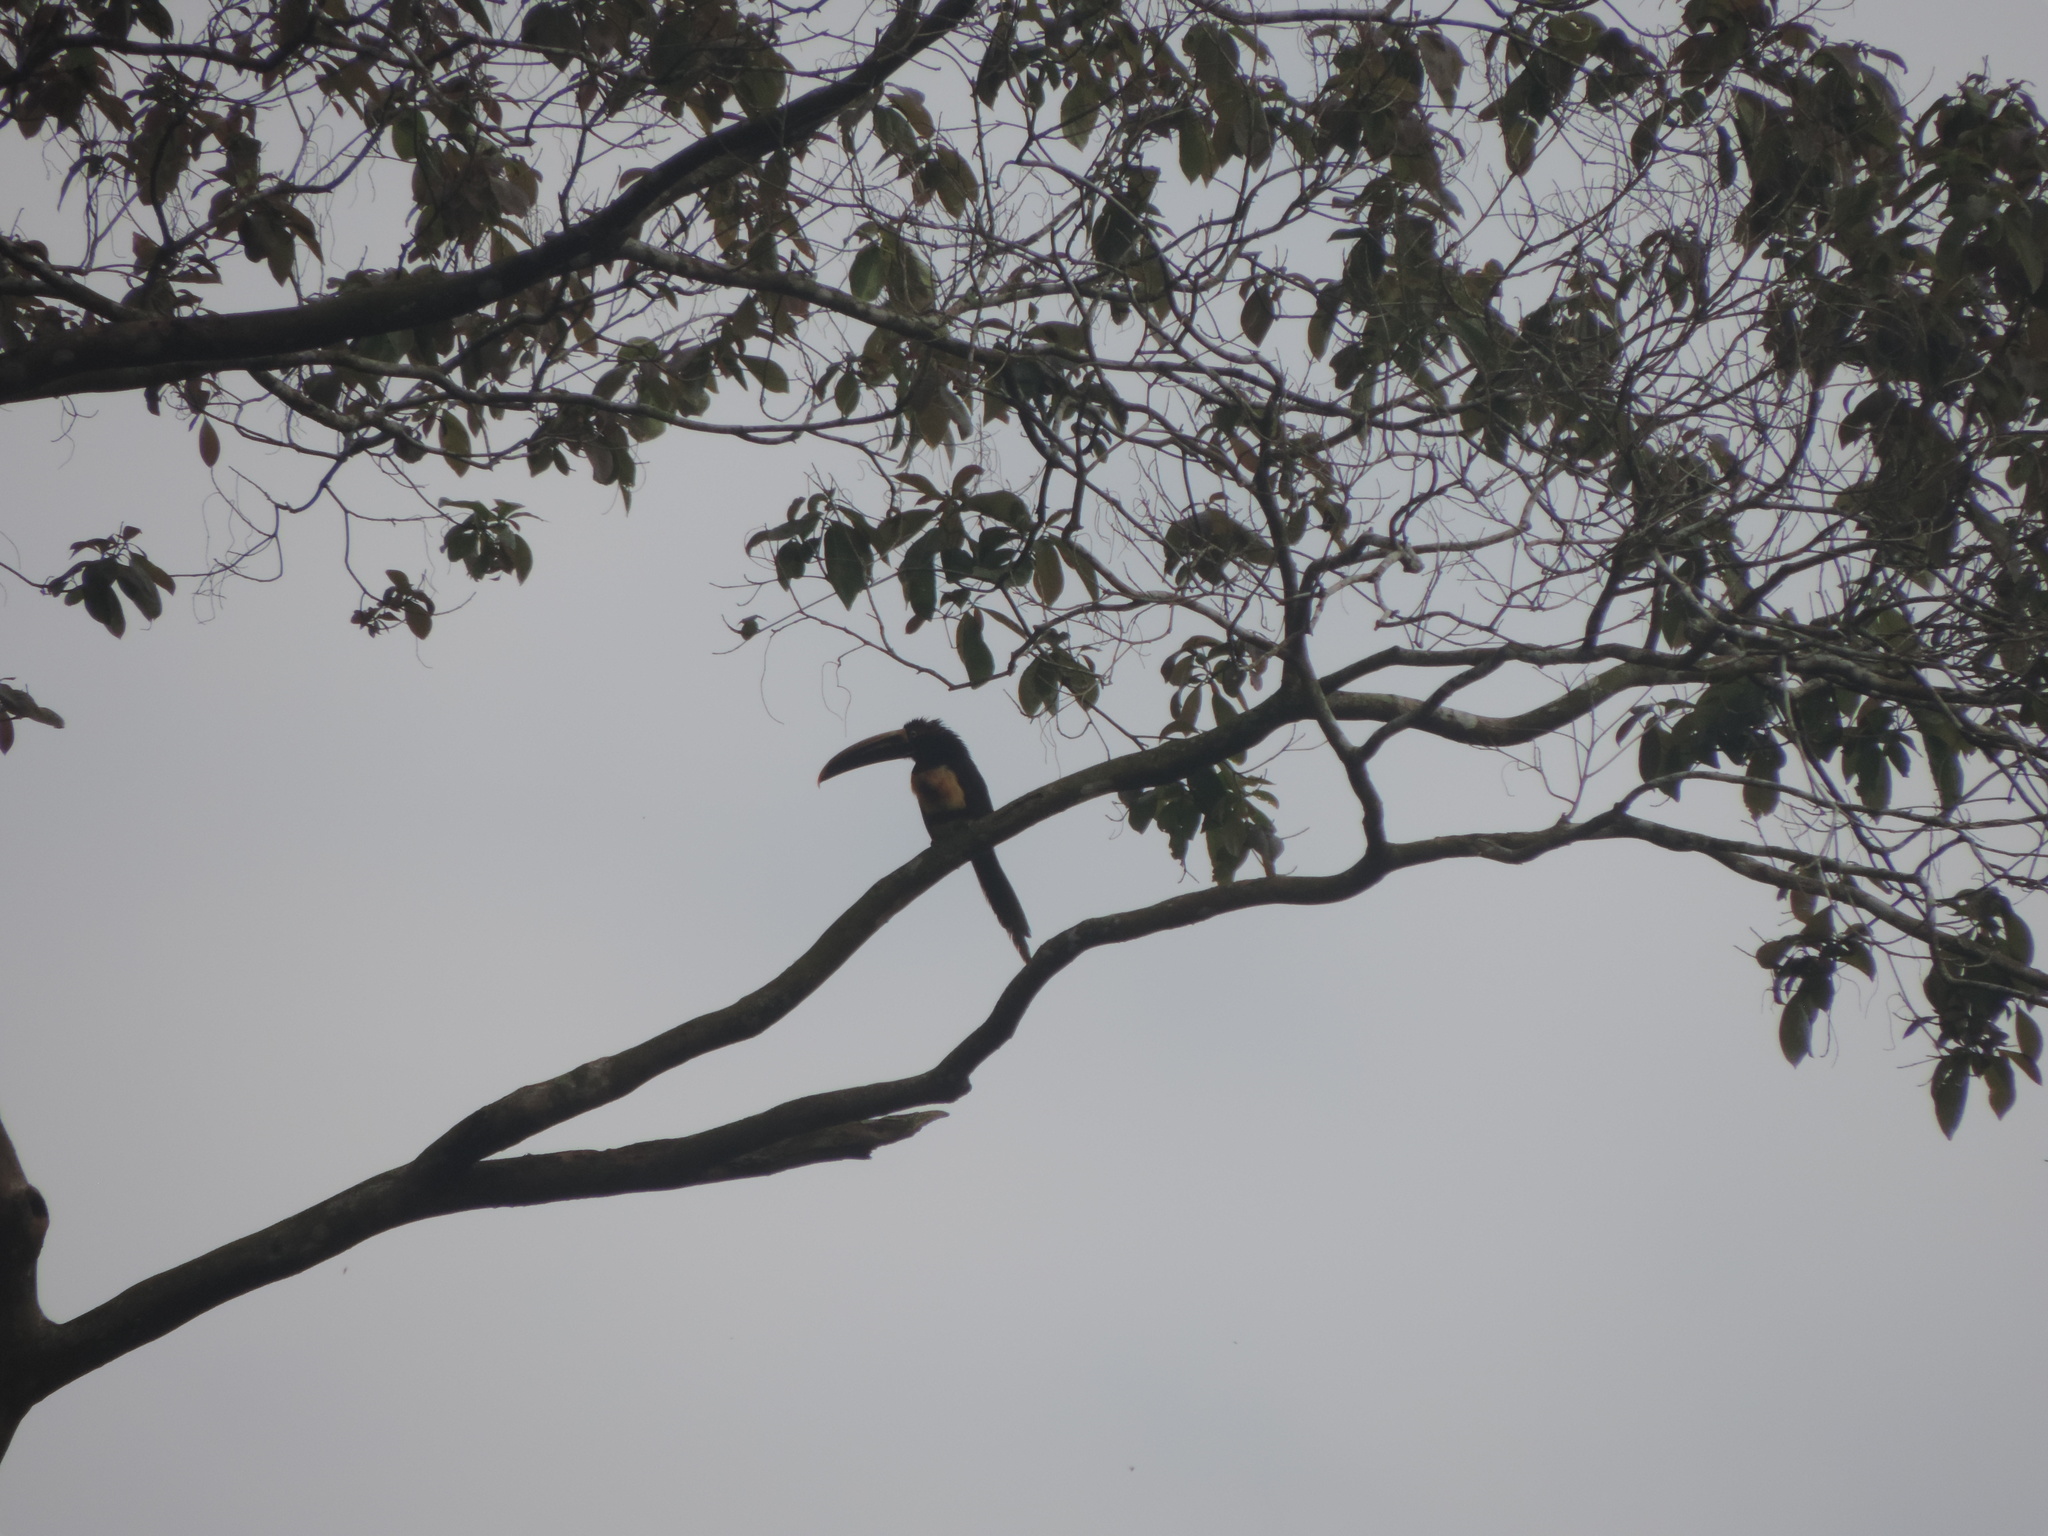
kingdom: Animalia
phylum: Chordata
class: Aves
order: Piciformes
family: Ramphastidae
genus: Pteroglossus
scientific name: Pteroglossus torquatus
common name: Collared aracari
